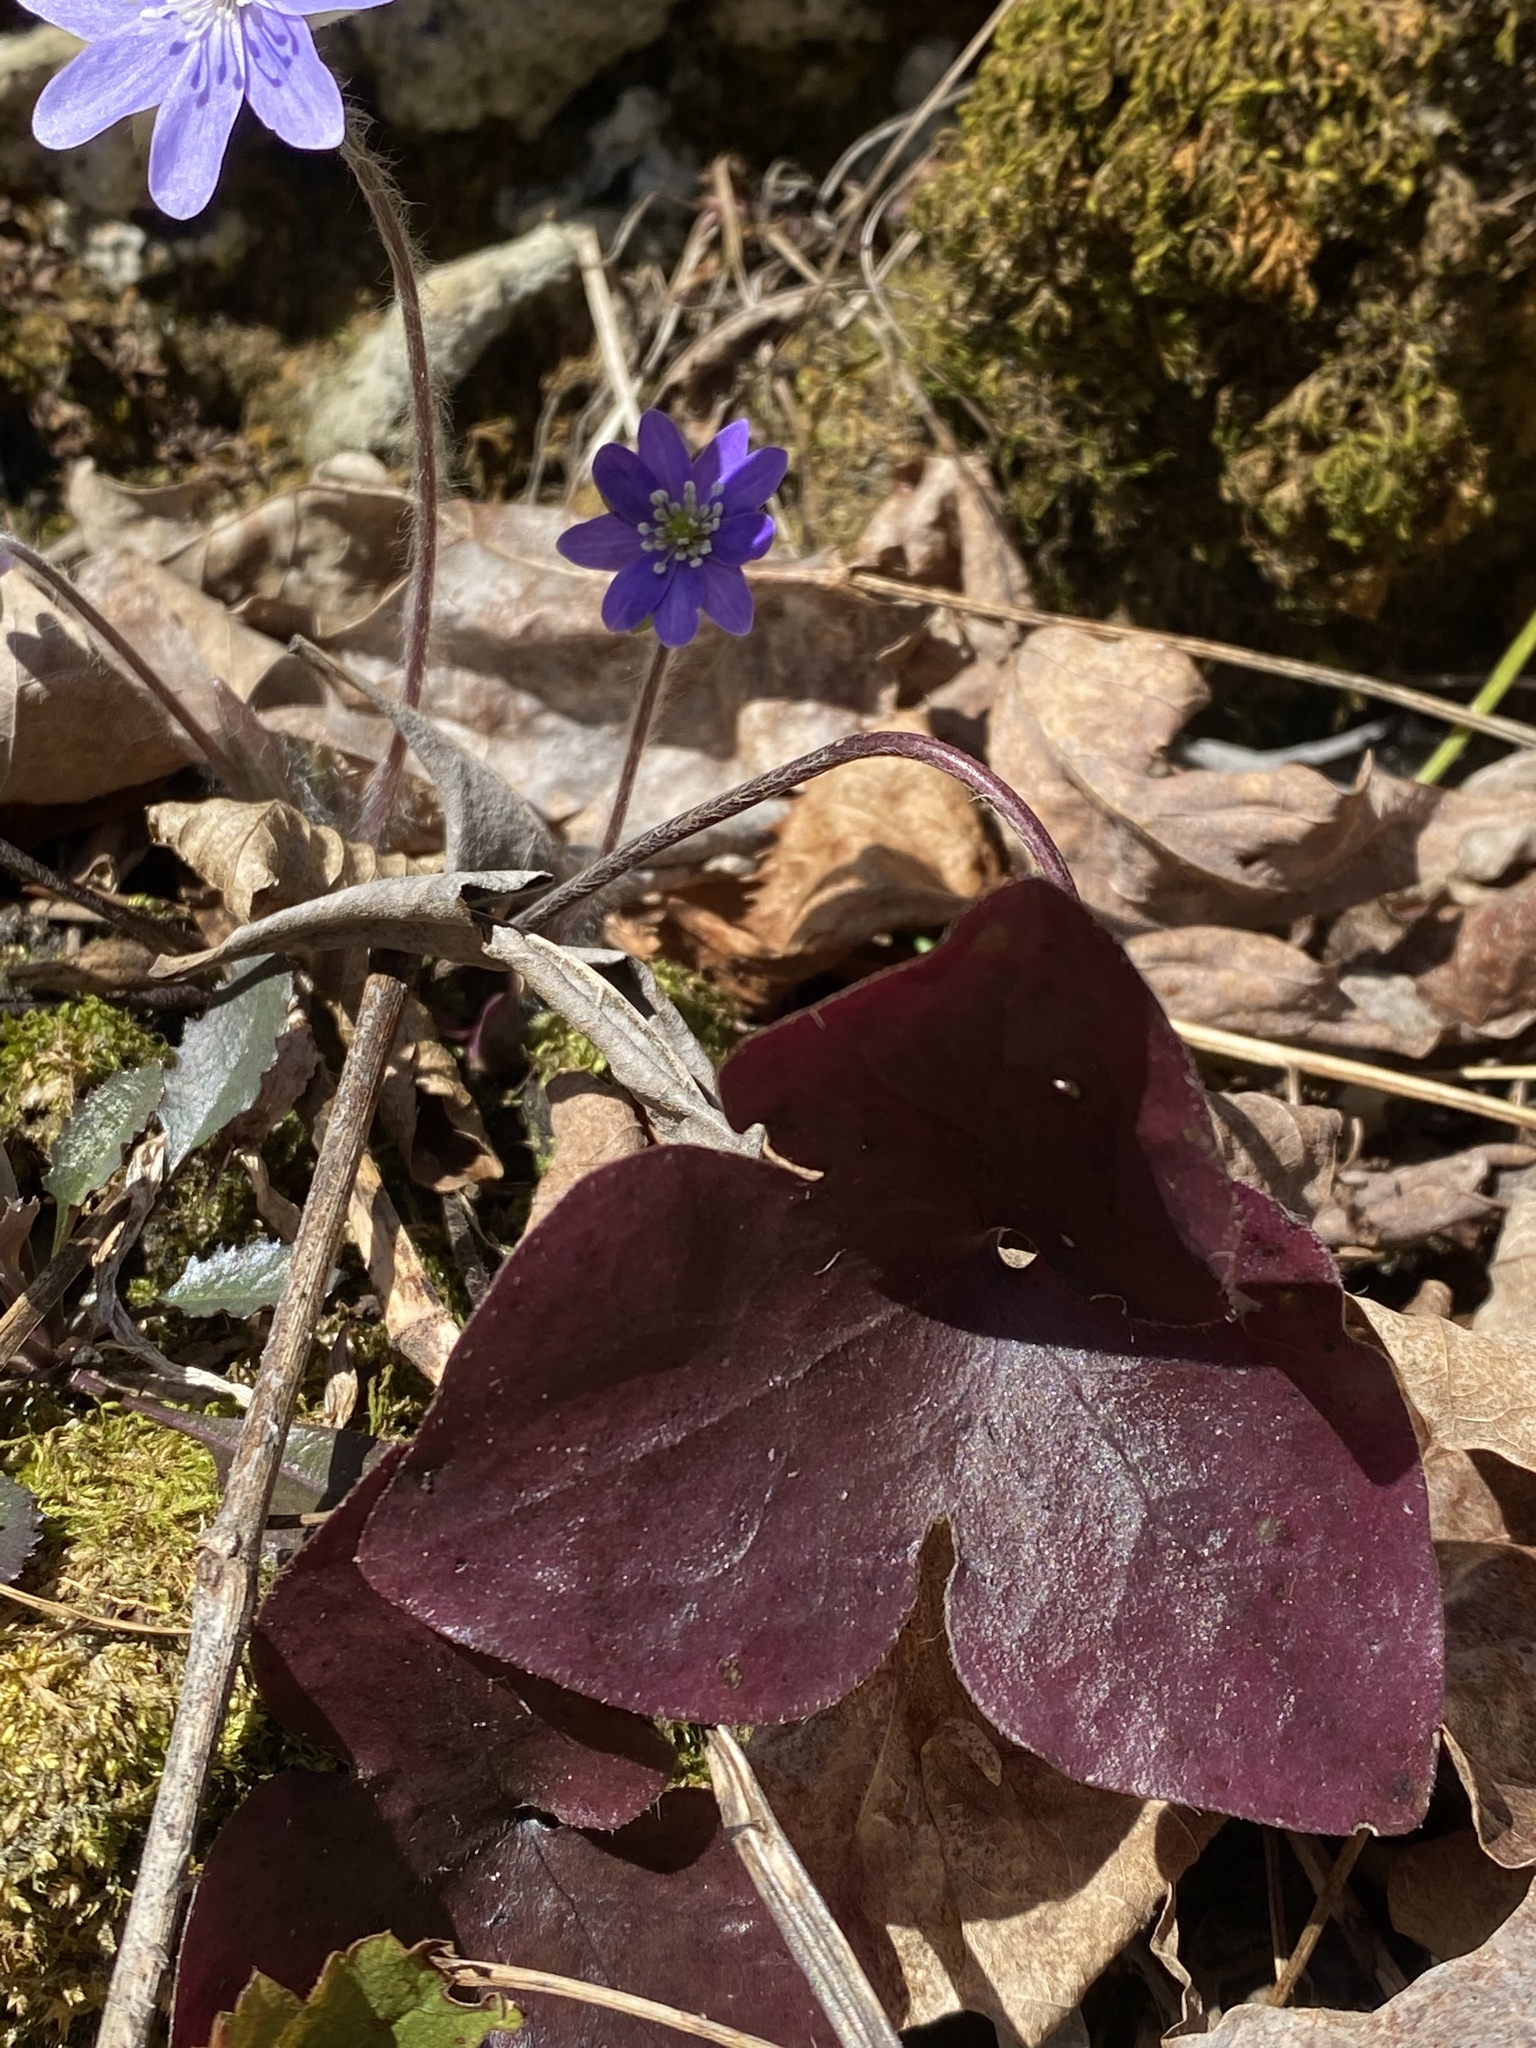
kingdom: Plantae
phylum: Tracheophyta
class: Magnoliopsida
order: Ranunculales
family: Ranunculaceae
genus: Hepatica
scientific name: Hepatica acutiloba
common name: Sharp-lobed hepatica
